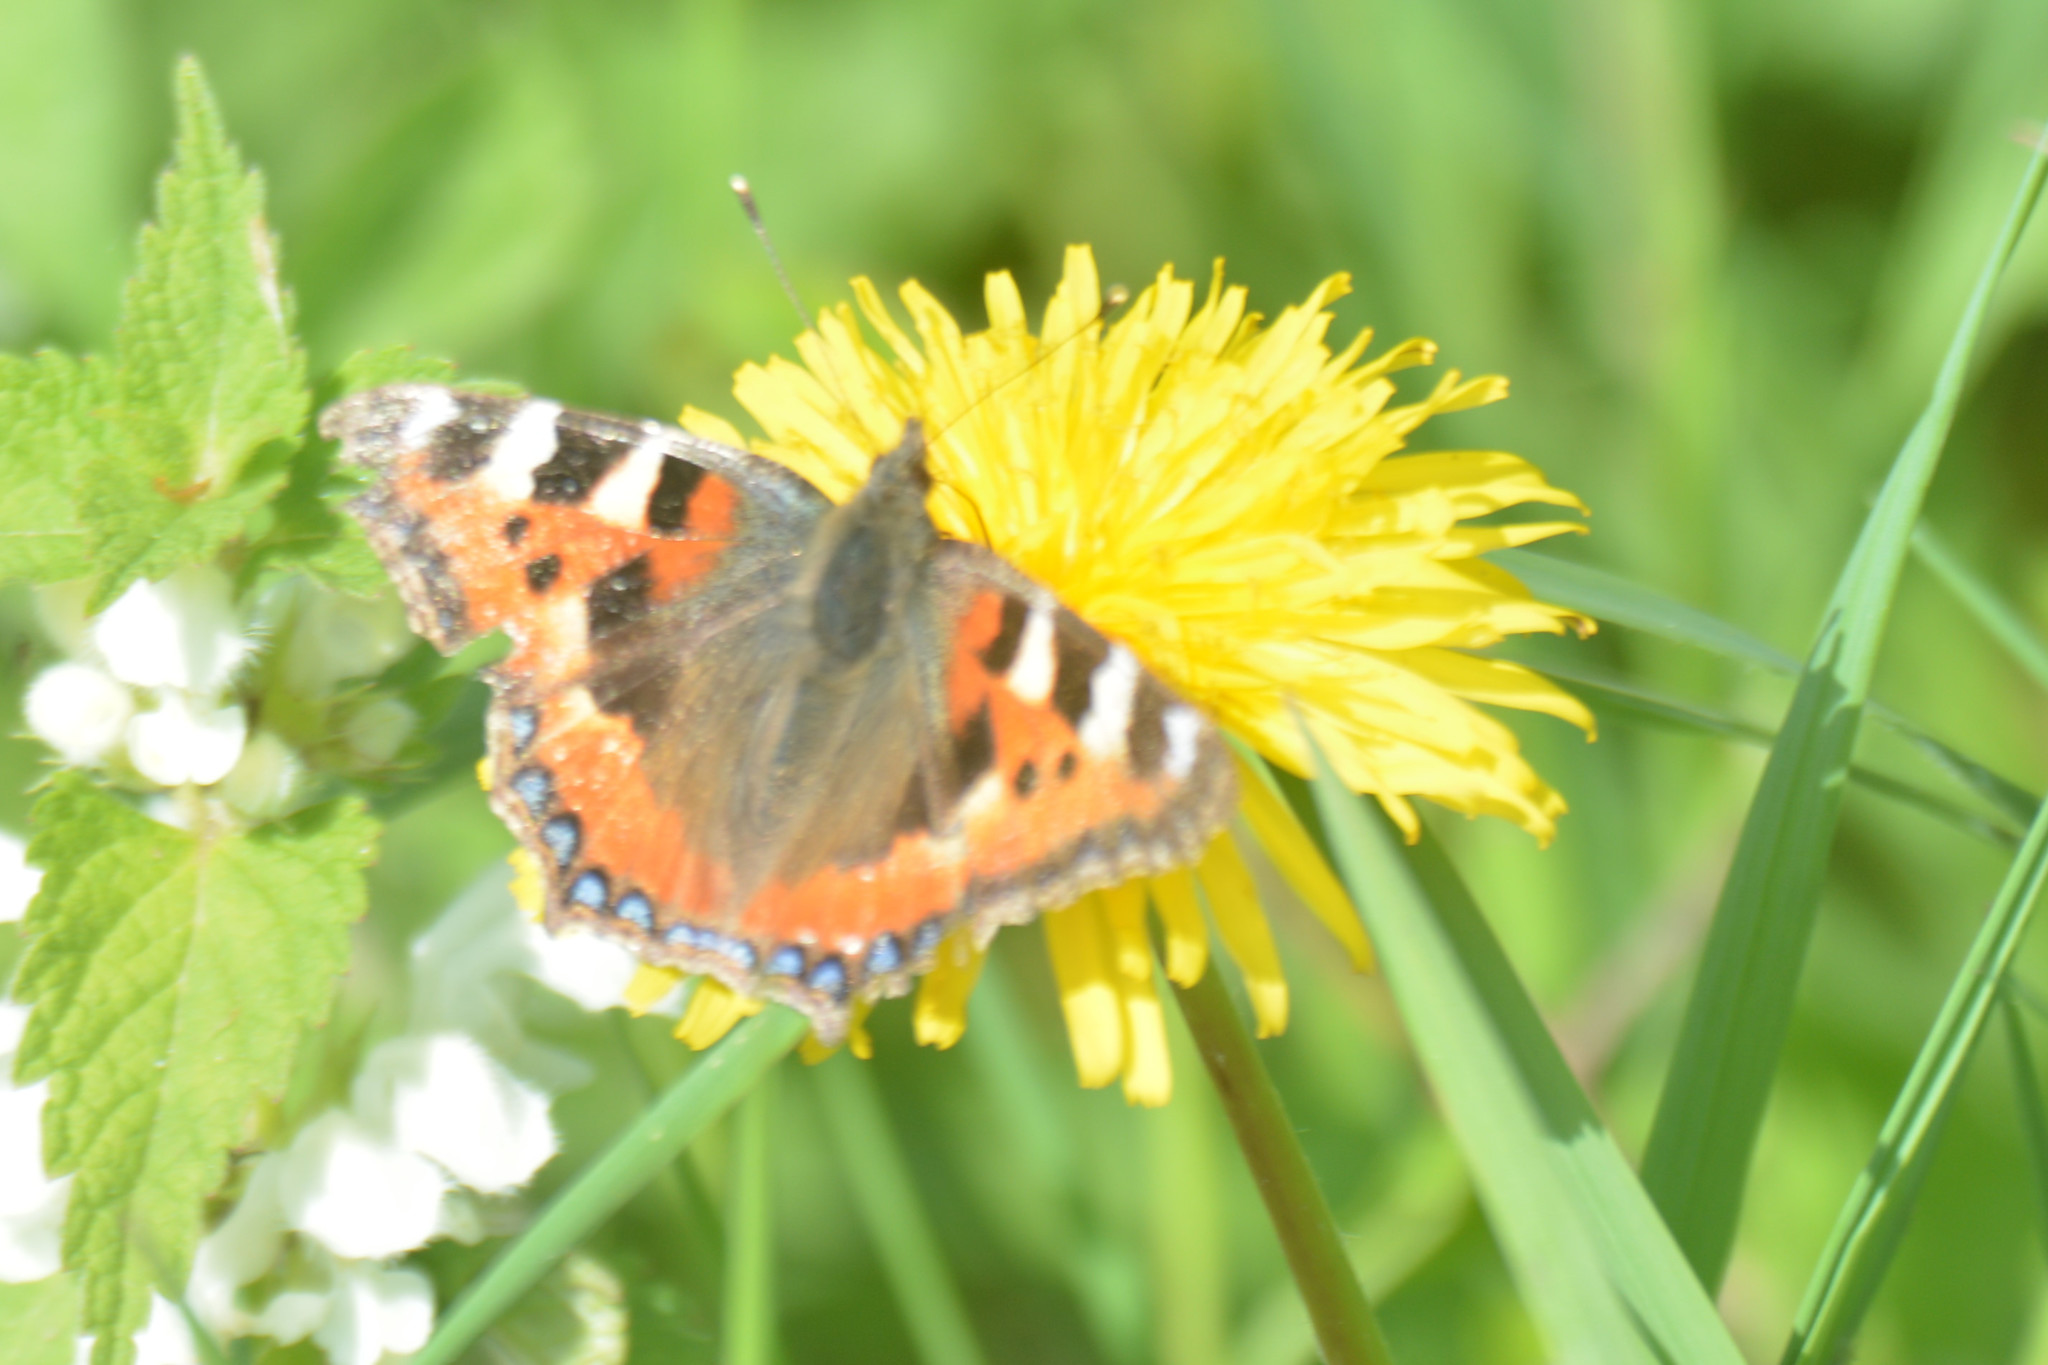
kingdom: Animalia
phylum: Arthropoda
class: Insecta
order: Lepidoptera
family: Nymphalidae
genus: Aglais
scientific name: Aglais urticae
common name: Small tortoiseshell
